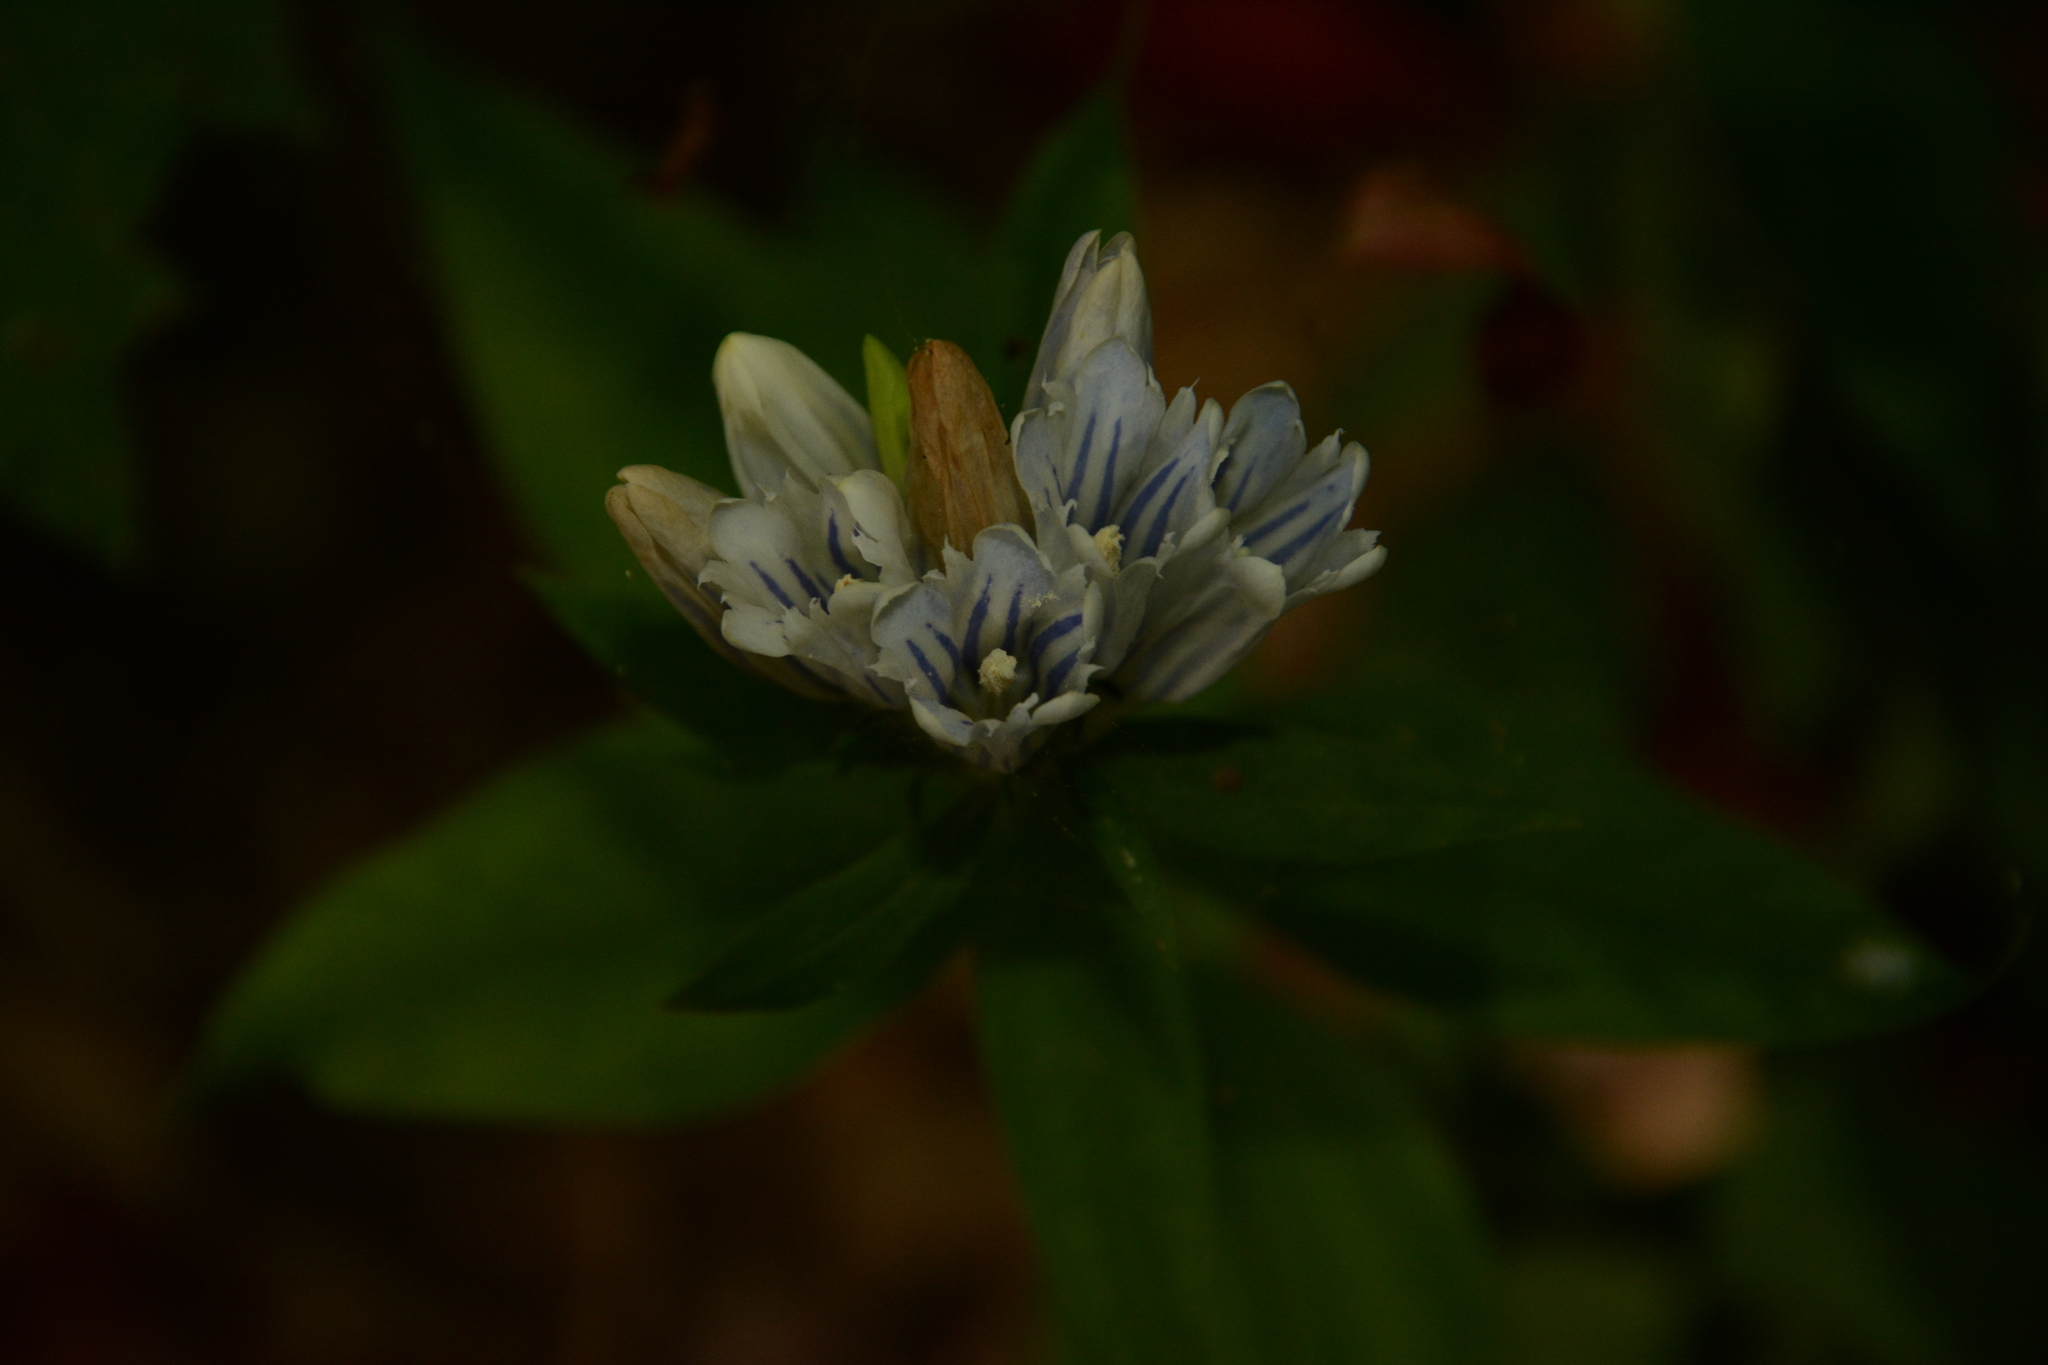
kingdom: Plantae
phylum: Tracheophyta
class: Magnoliopsida
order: Gentianales
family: Gentianaceae
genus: Gentiana
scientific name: Gentiana decora
